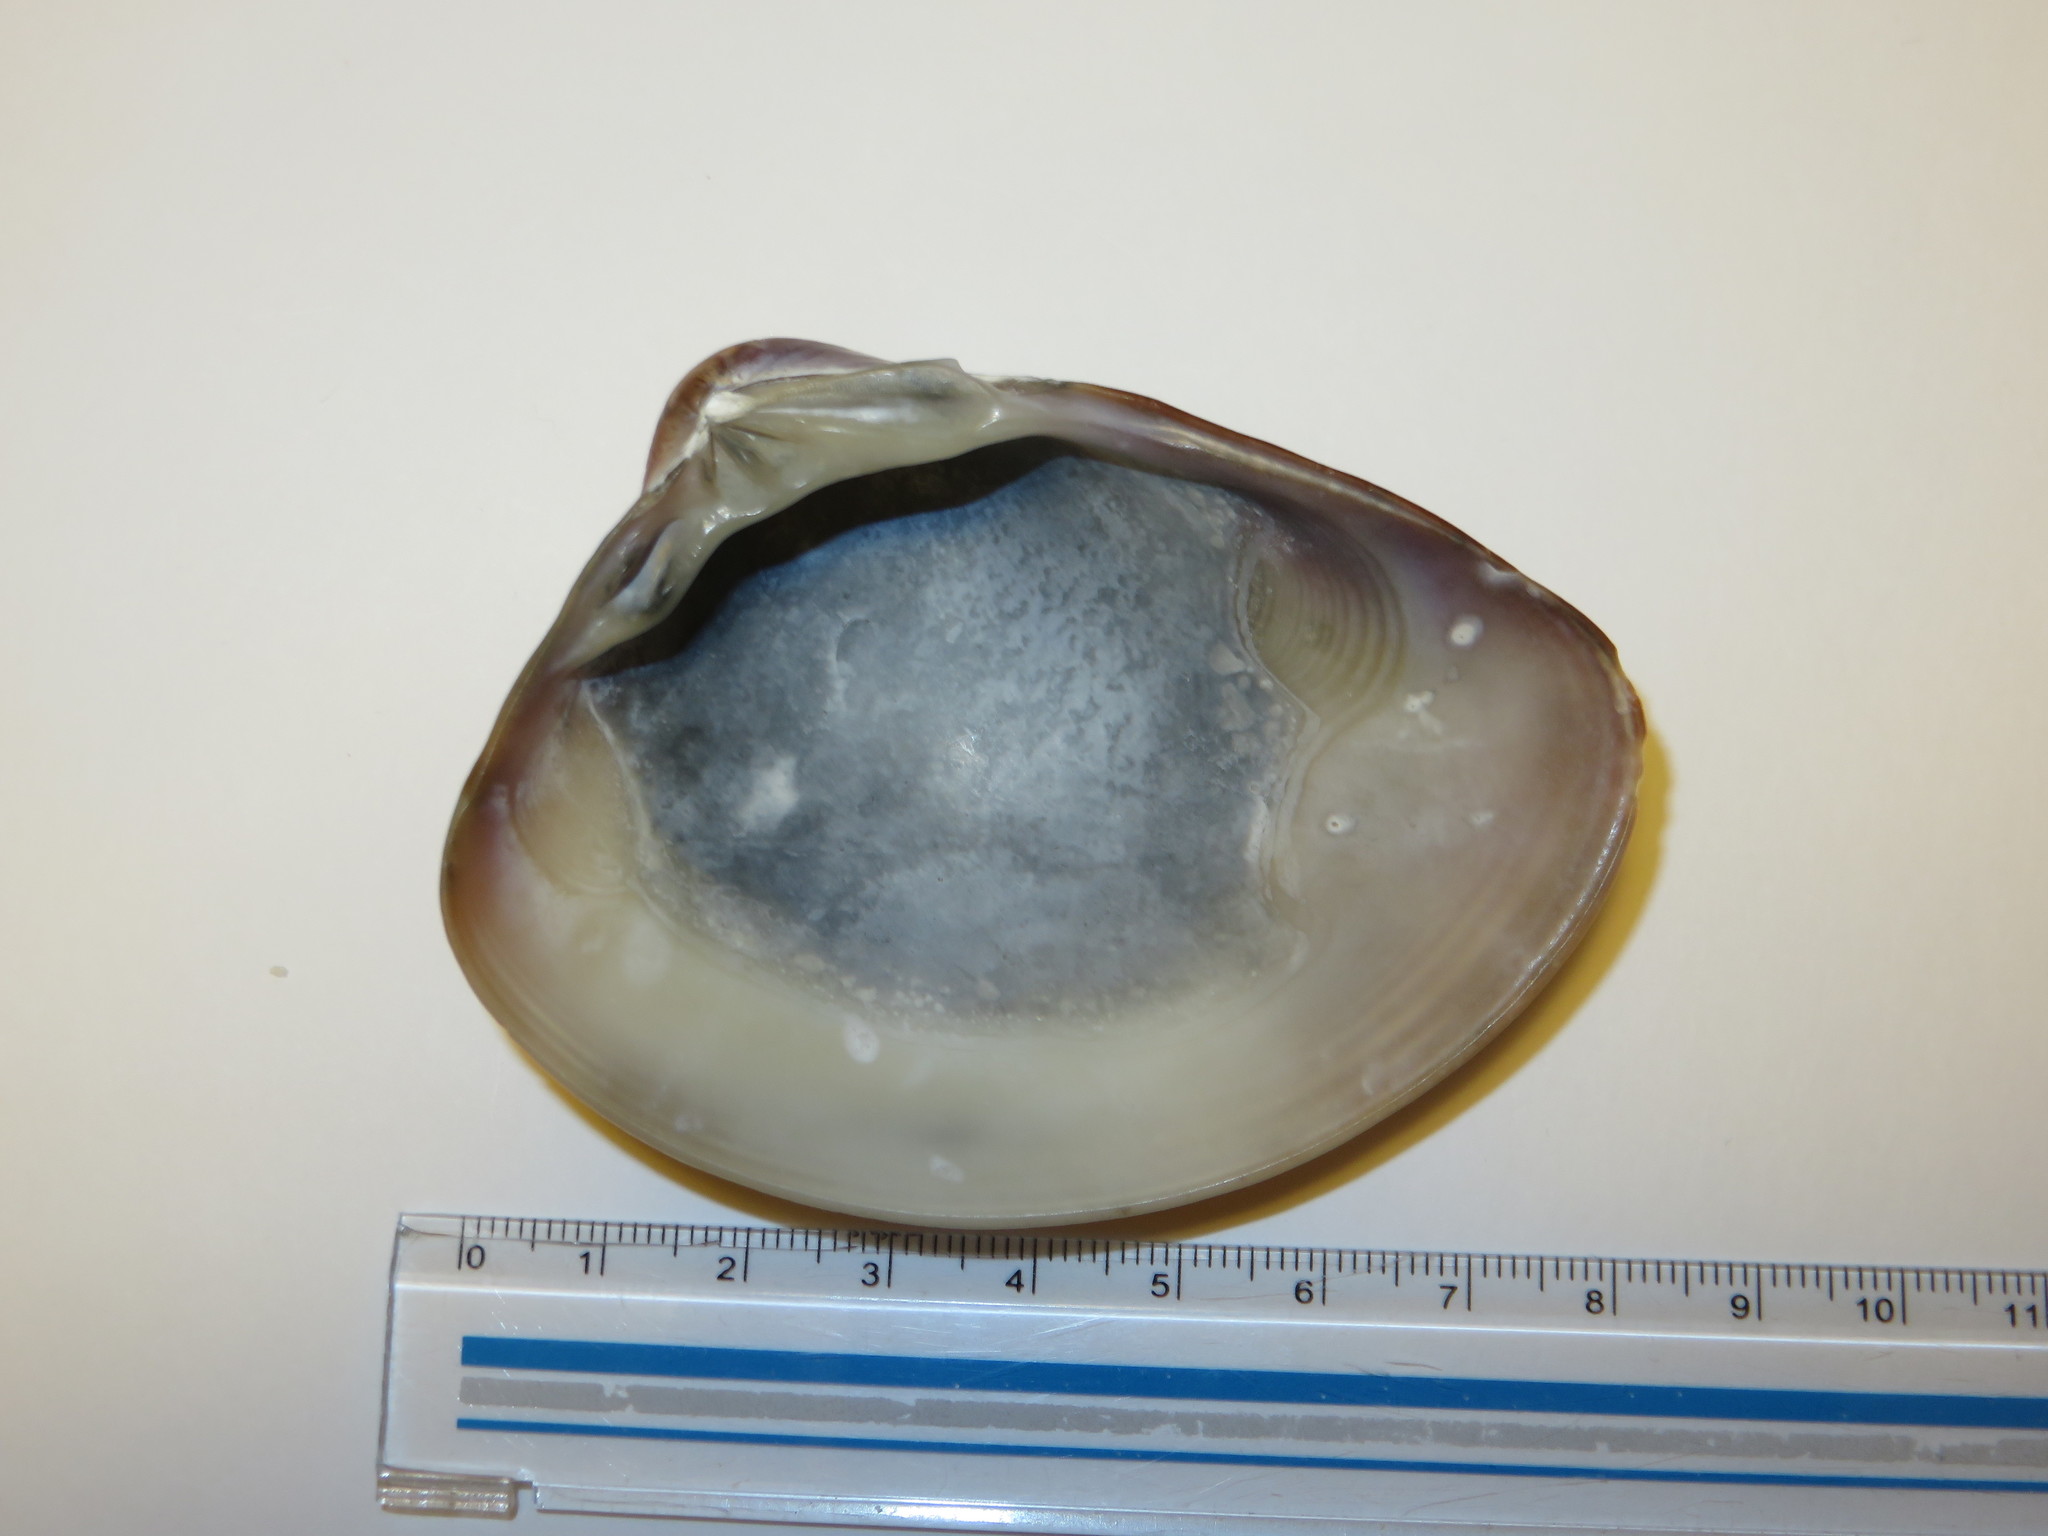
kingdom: Animalia
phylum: Mollusca
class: Bivalvia
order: Venerida
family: Veneridae
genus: Meretrix
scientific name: Meretrix lamarckii
